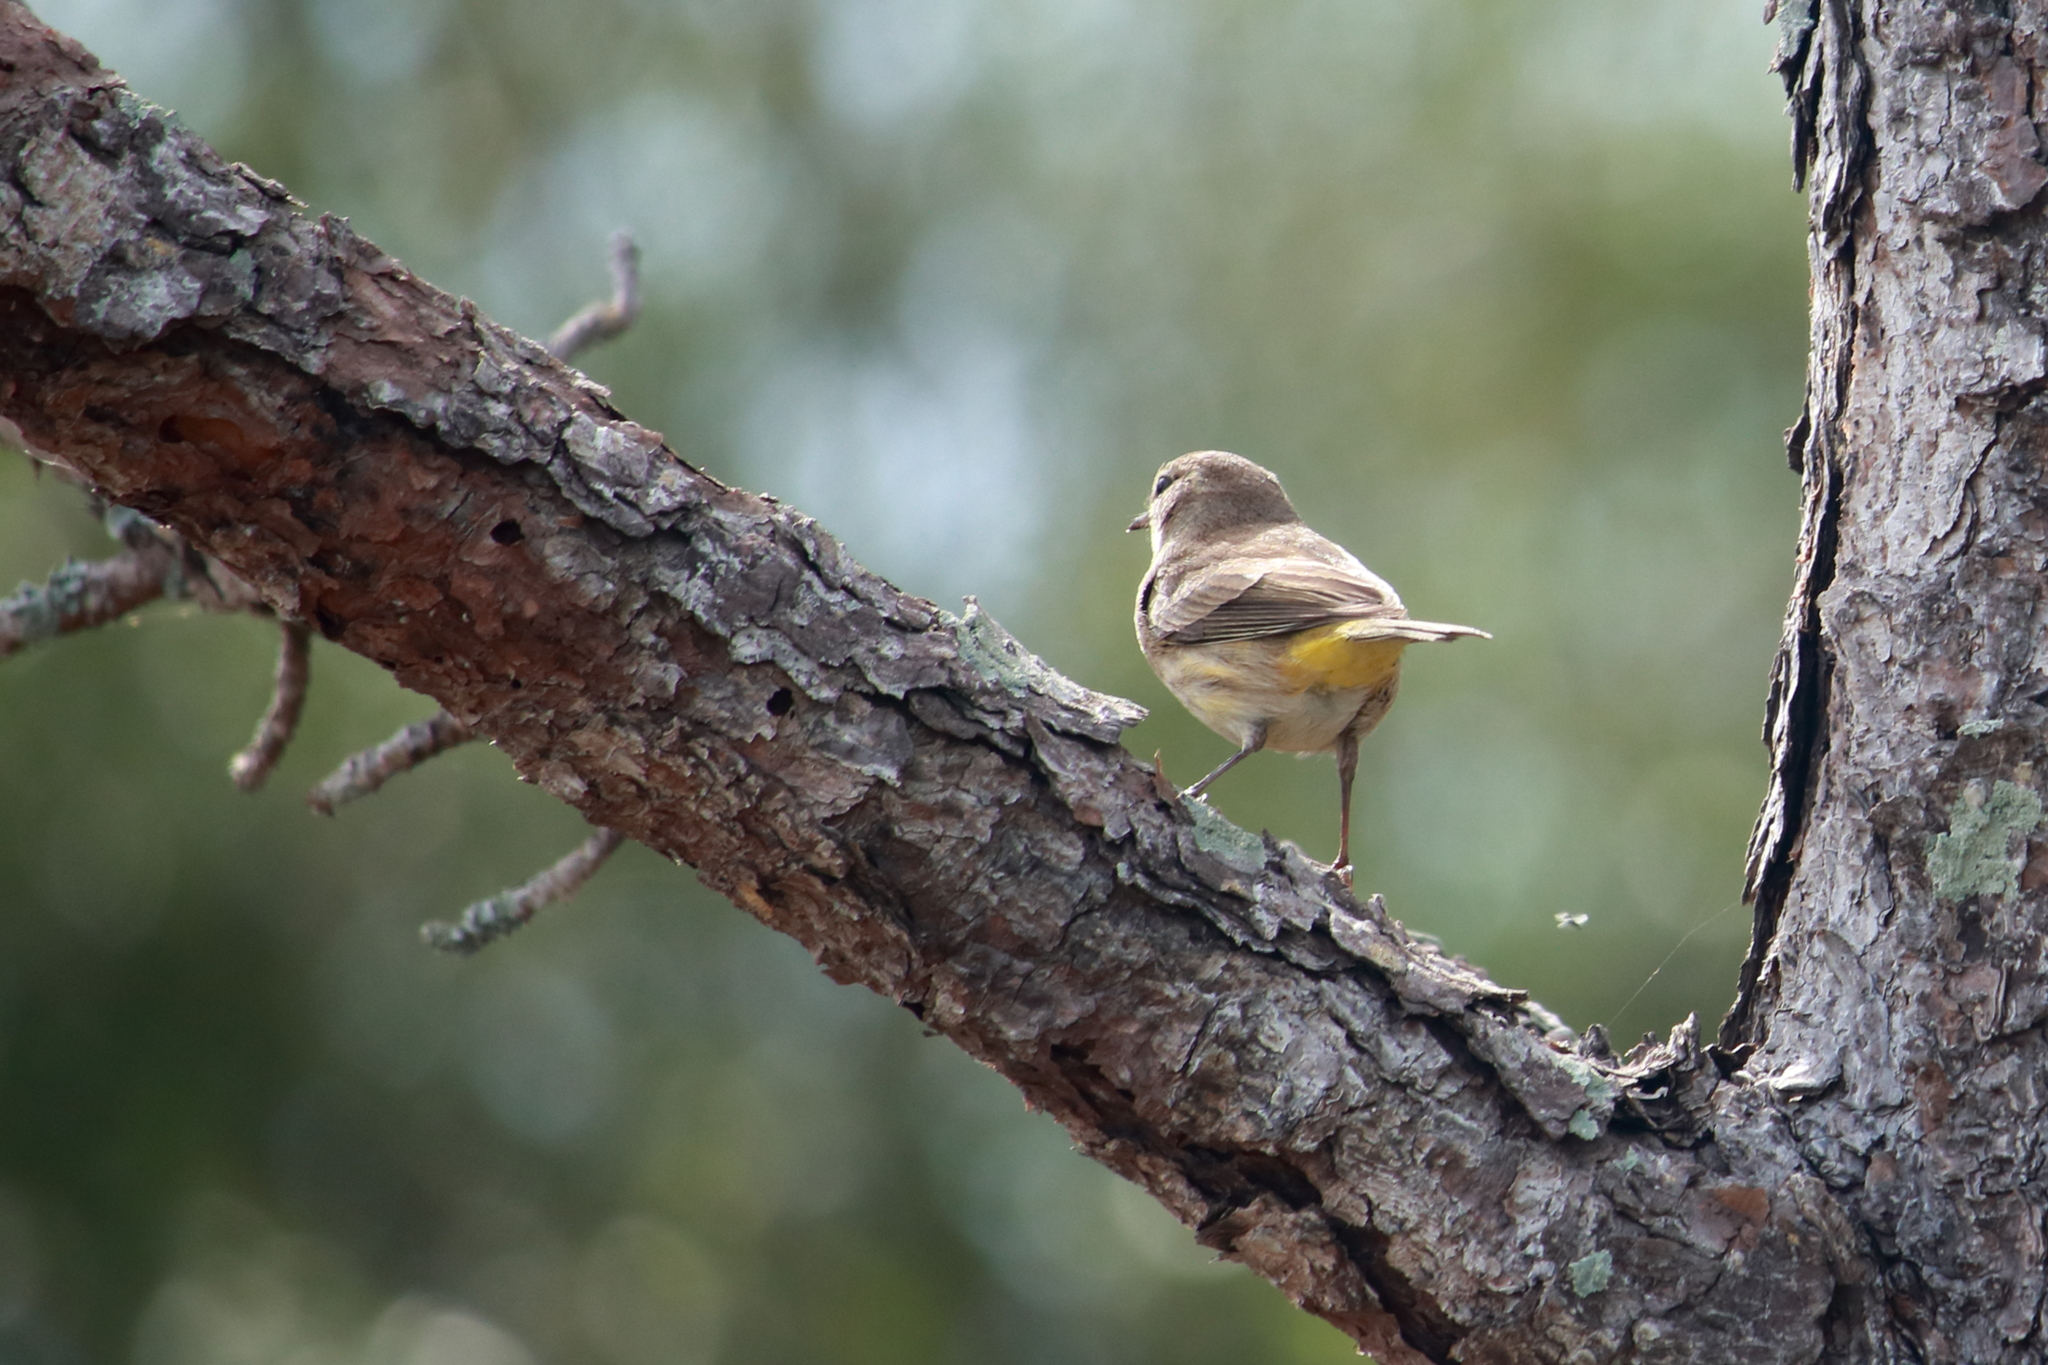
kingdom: Animalia
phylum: Chordata
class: Aves
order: Passeriformes
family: Parulidae
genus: Setophaga
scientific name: Setophaga palmarum
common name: Palm warbler
